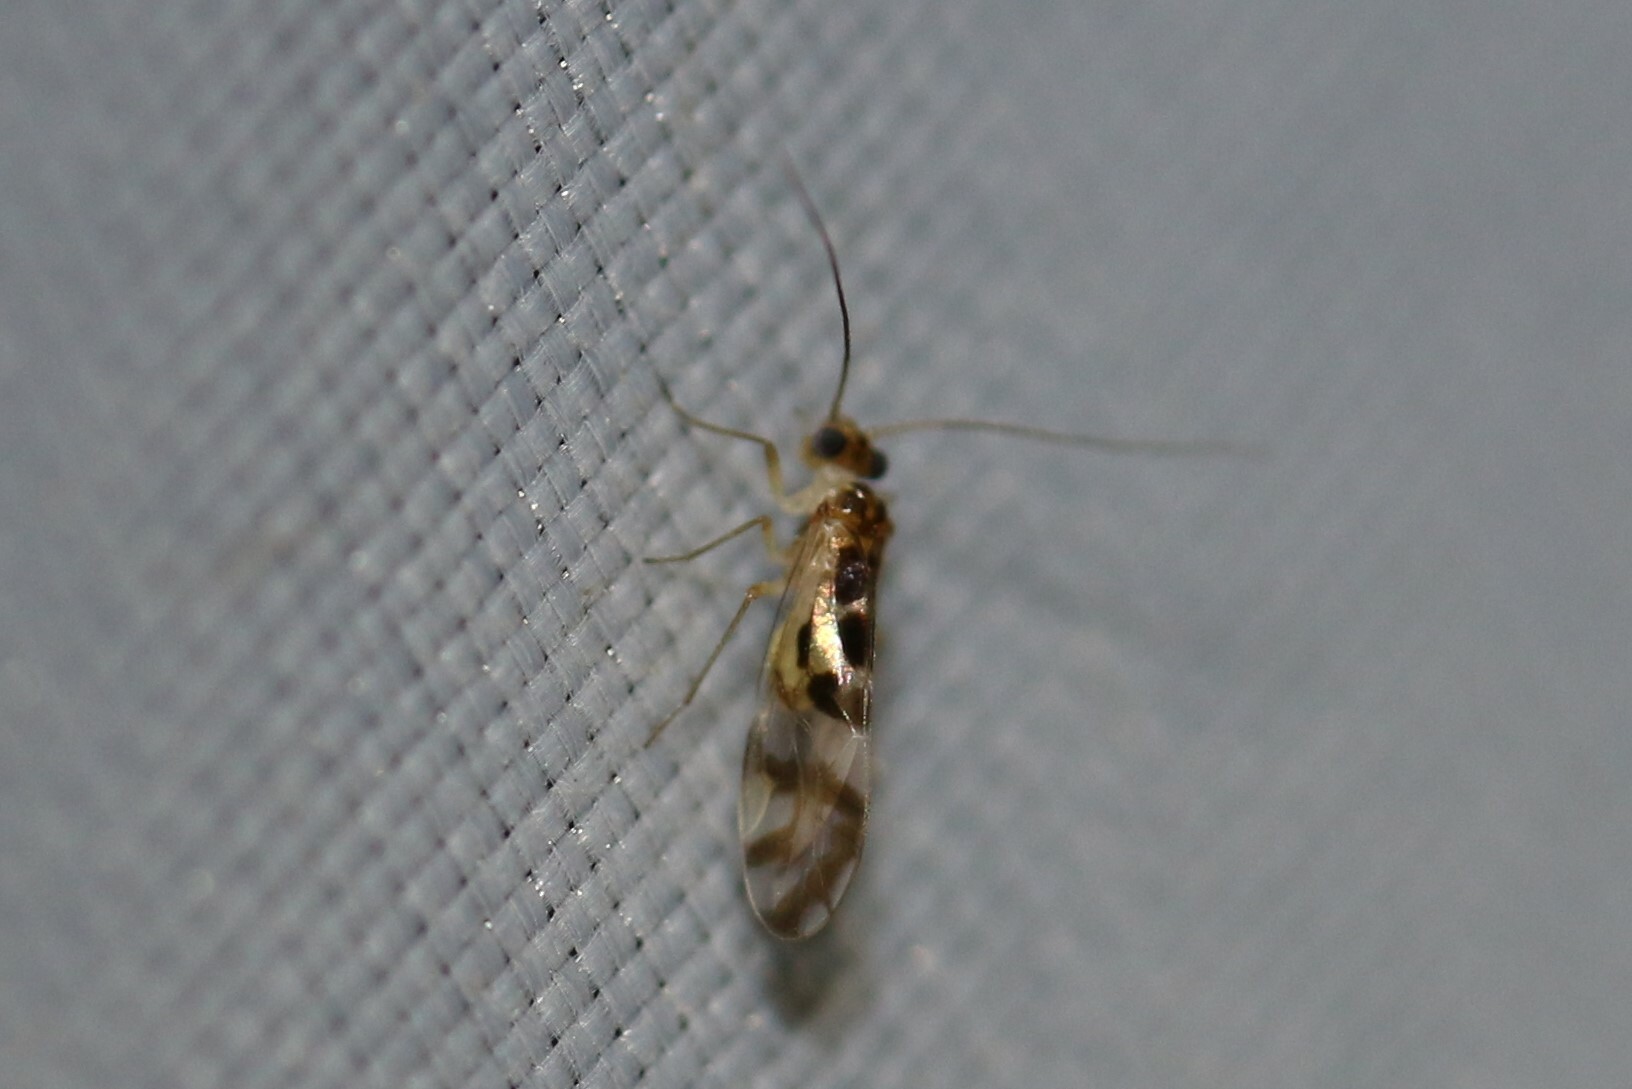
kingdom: Animalia
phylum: Arthropoda
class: Insecta
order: Psocodea
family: Stenopsocidae
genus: Graphopsocus
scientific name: Graphopsocus cruciatus
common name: Lizard bark louse
